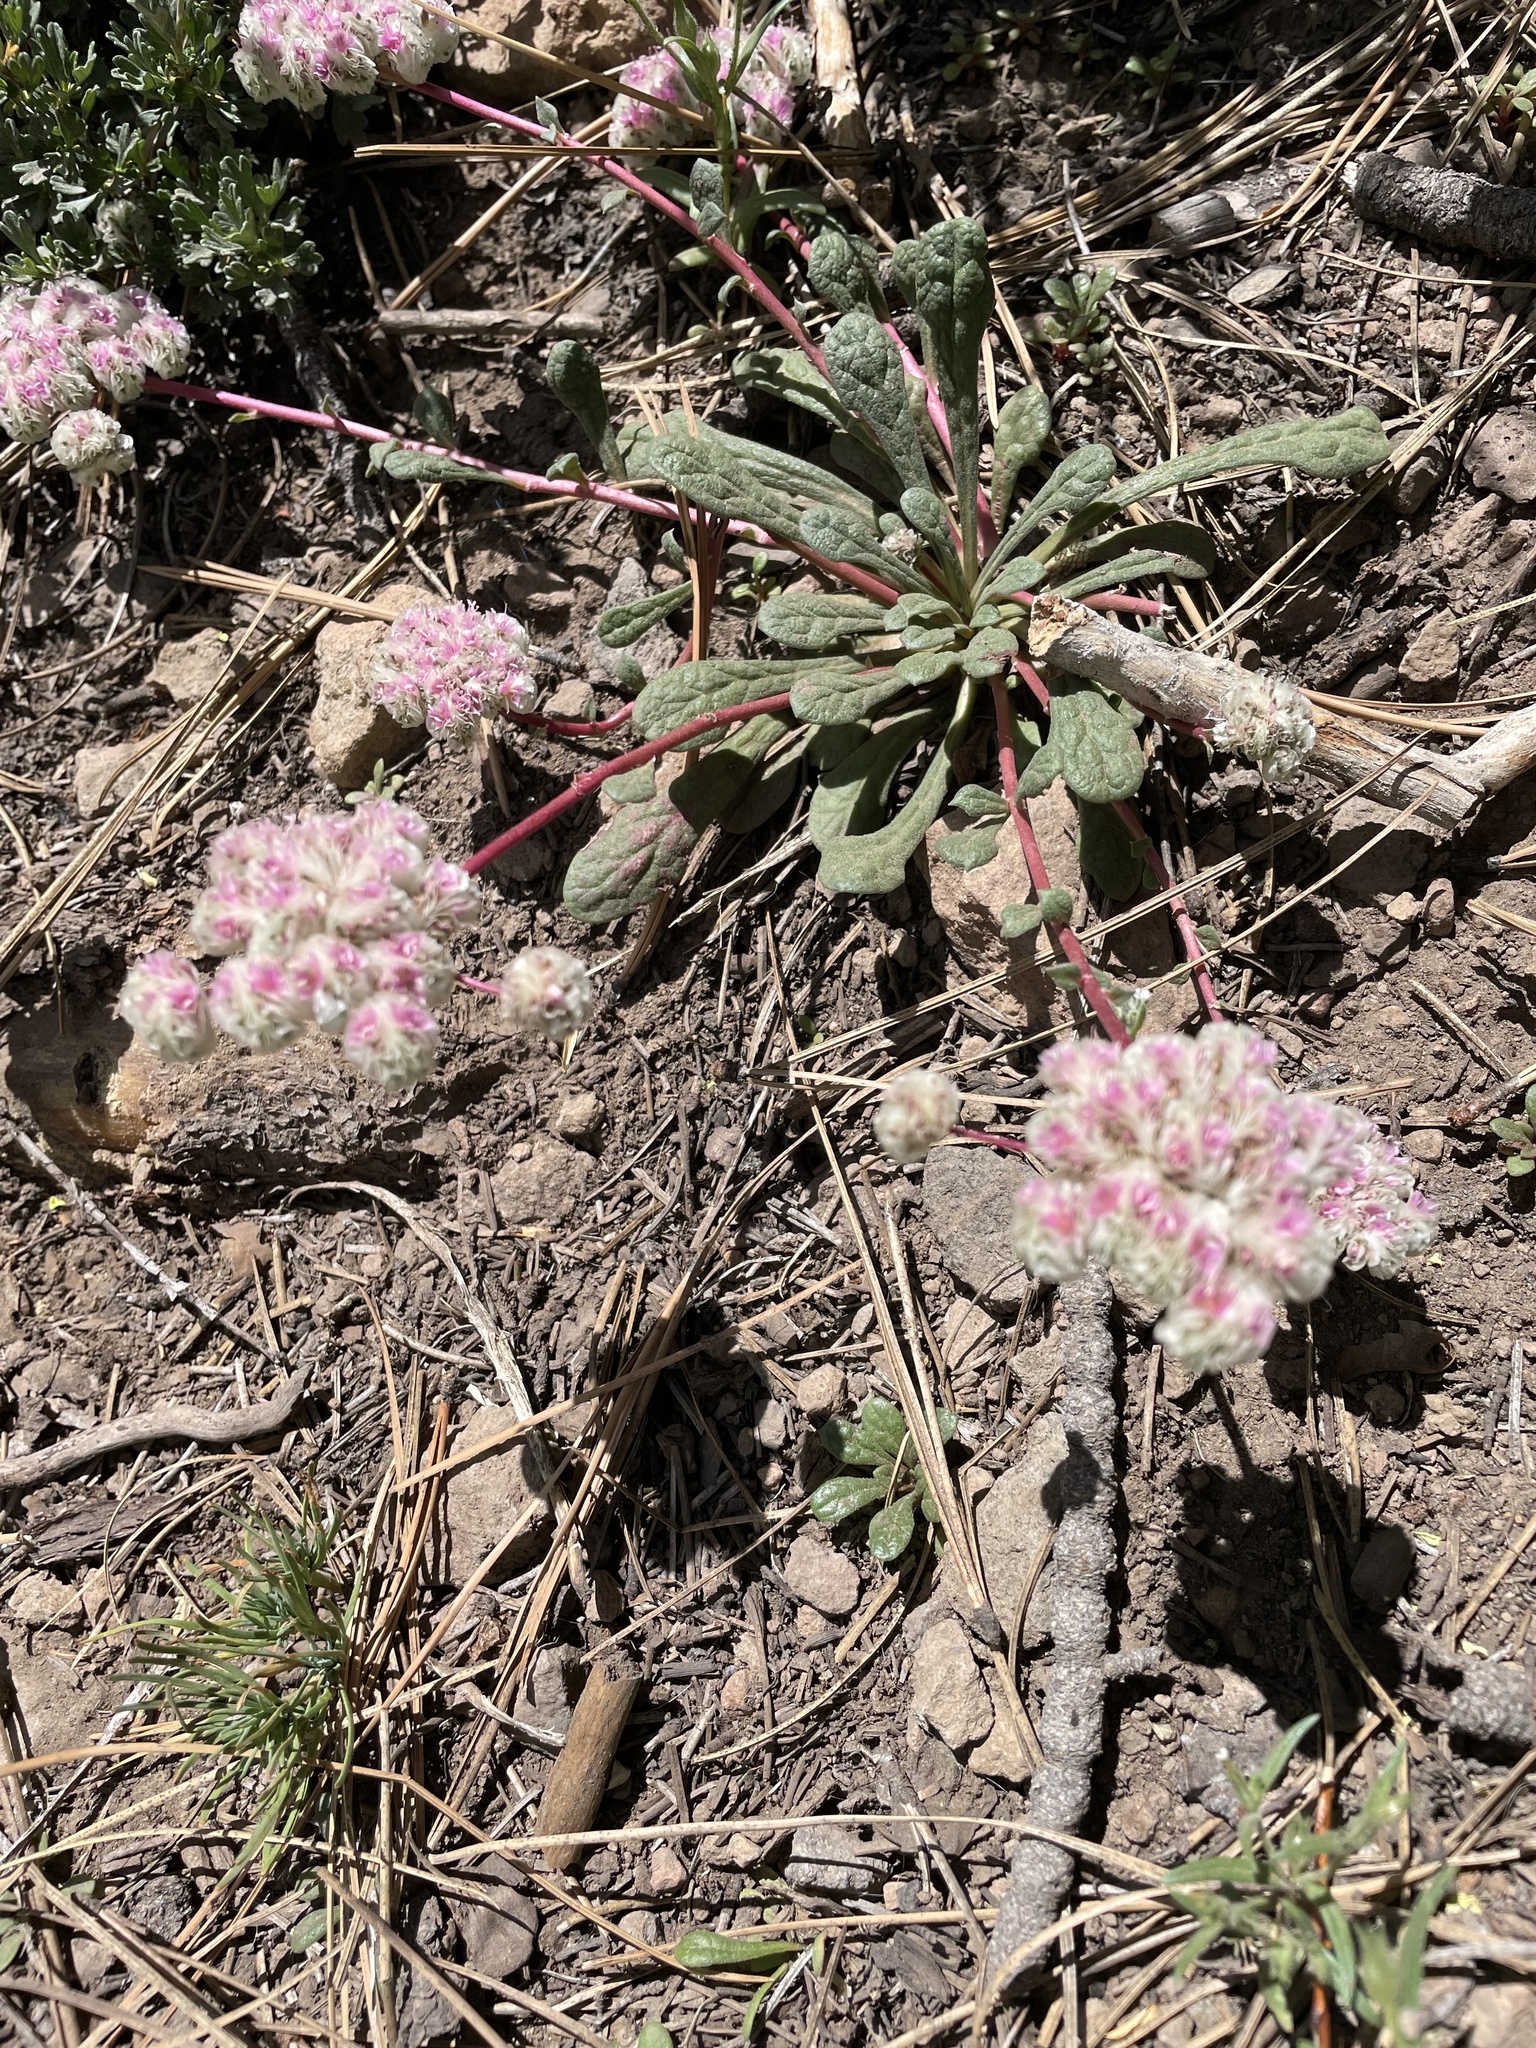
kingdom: Plantae
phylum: Tracheophyta
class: Magnoliopsida
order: Caryophyllales
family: Montiaceae
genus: Calyptridium
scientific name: Calyptridium monospermum
